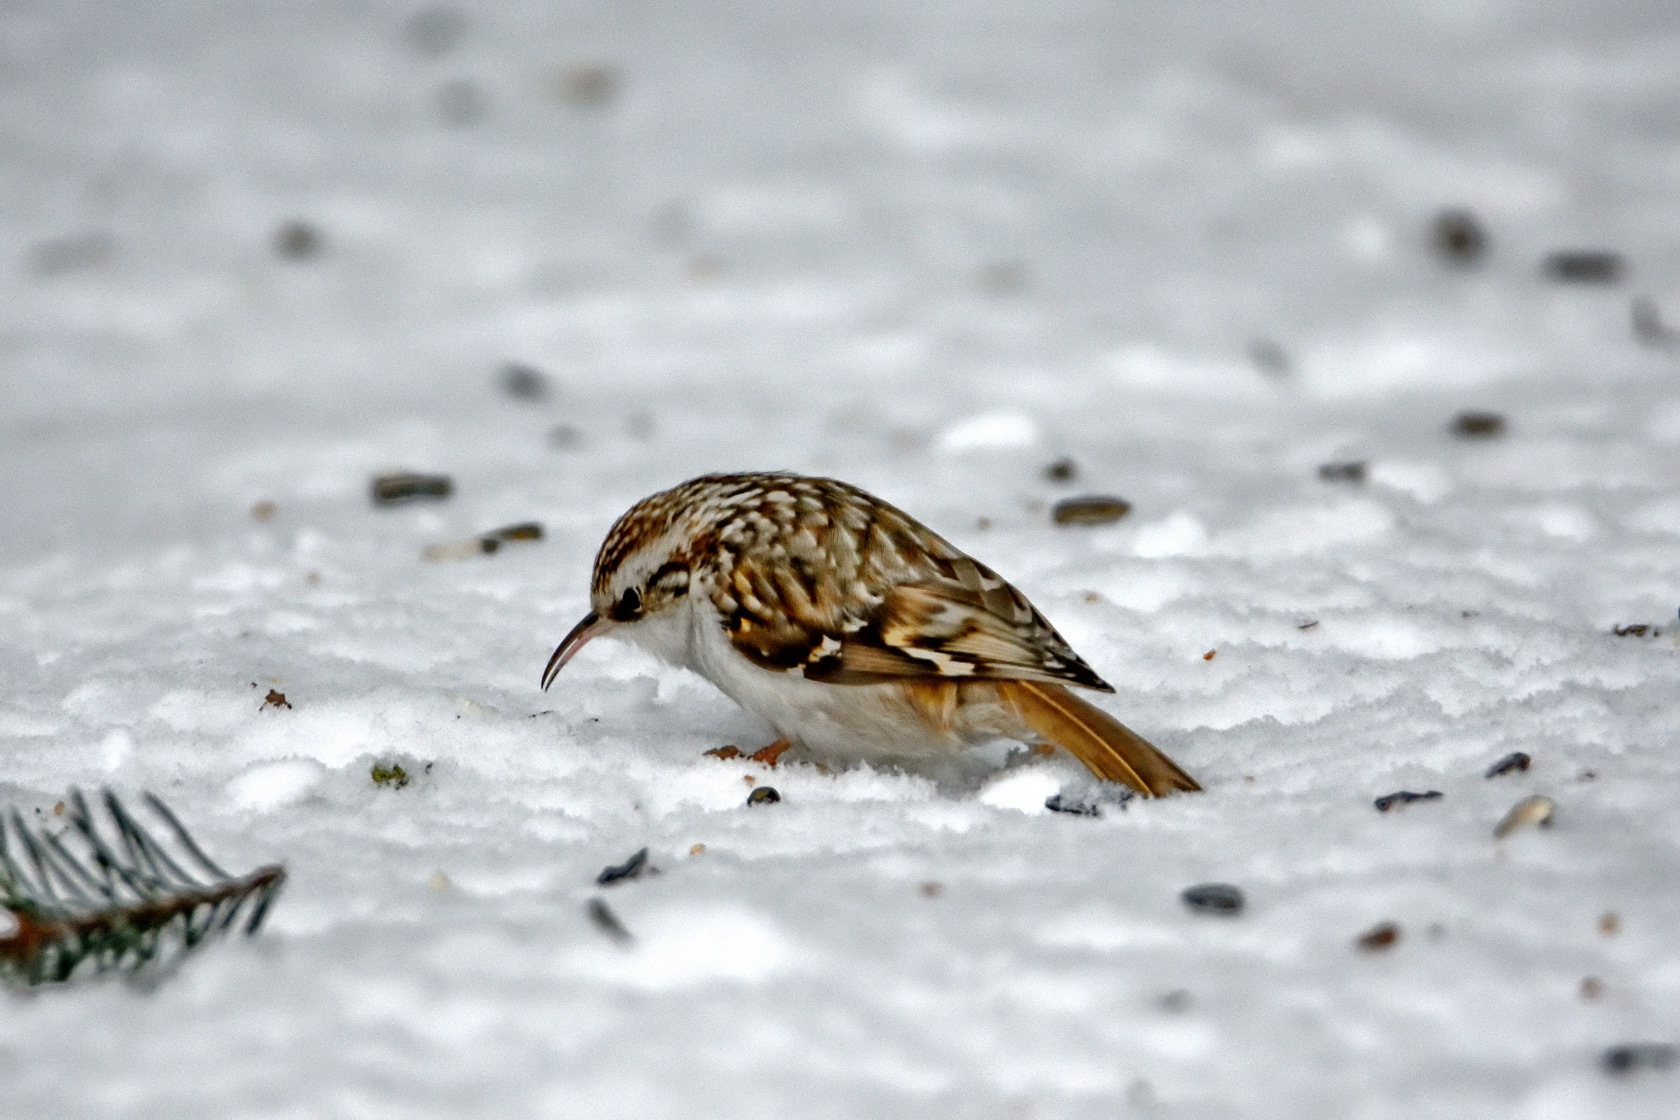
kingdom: Animalia
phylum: Chordata
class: Aves
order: Passeriformes
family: Certhiidae
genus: Certhia
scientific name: Certhia familiaris
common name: Eurasian treecreeper
